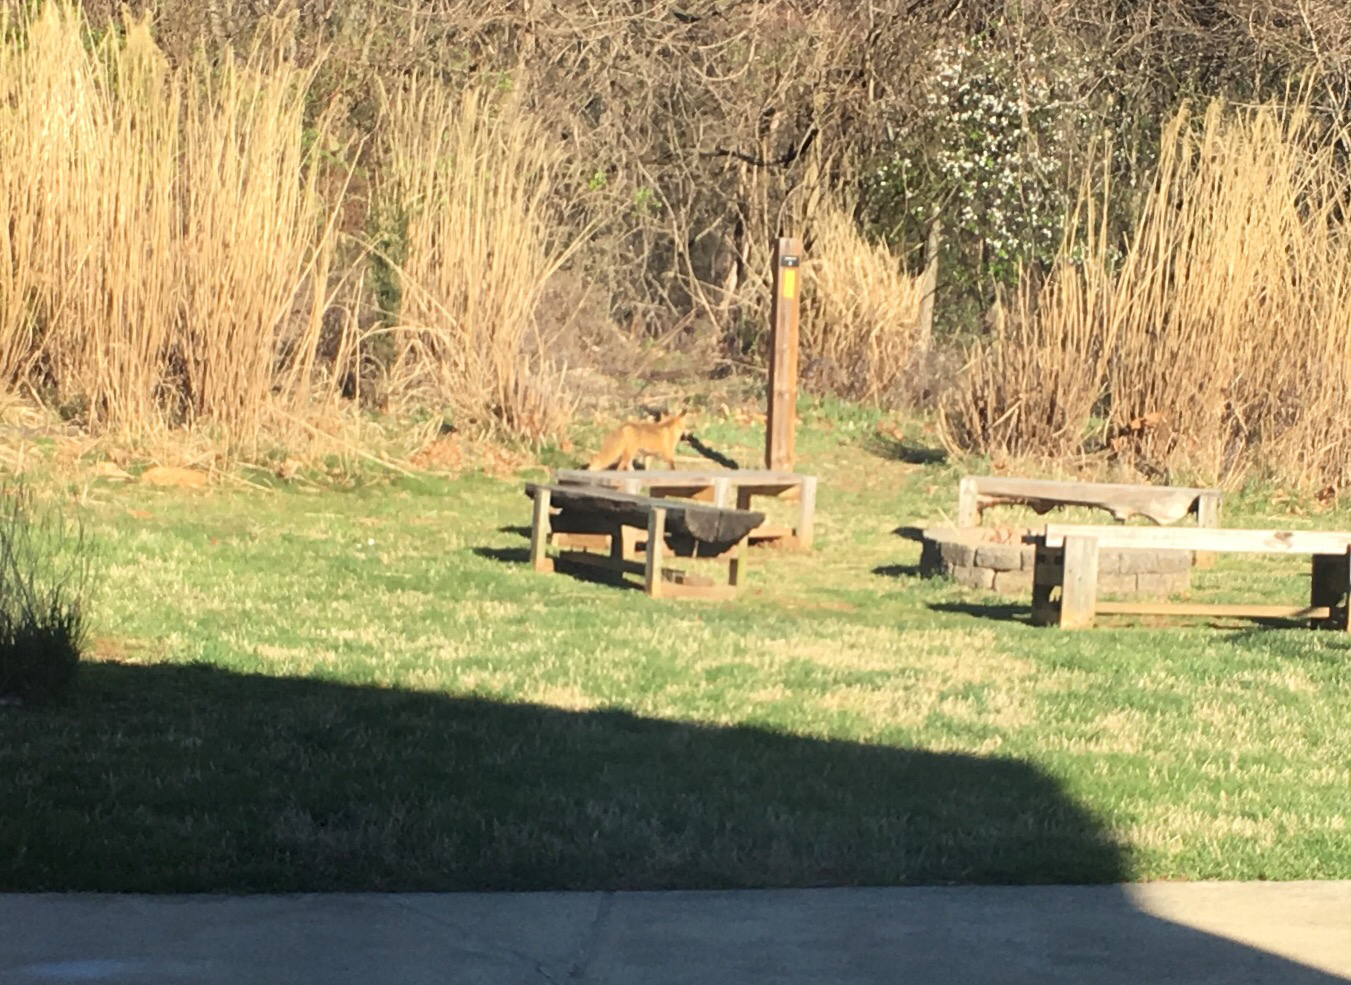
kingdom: Animalia
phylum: Chordata
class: Mammalia
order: Carnivora
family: Canidae
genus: Vulpes
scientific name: Vulpes vulpes
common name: Red fox
